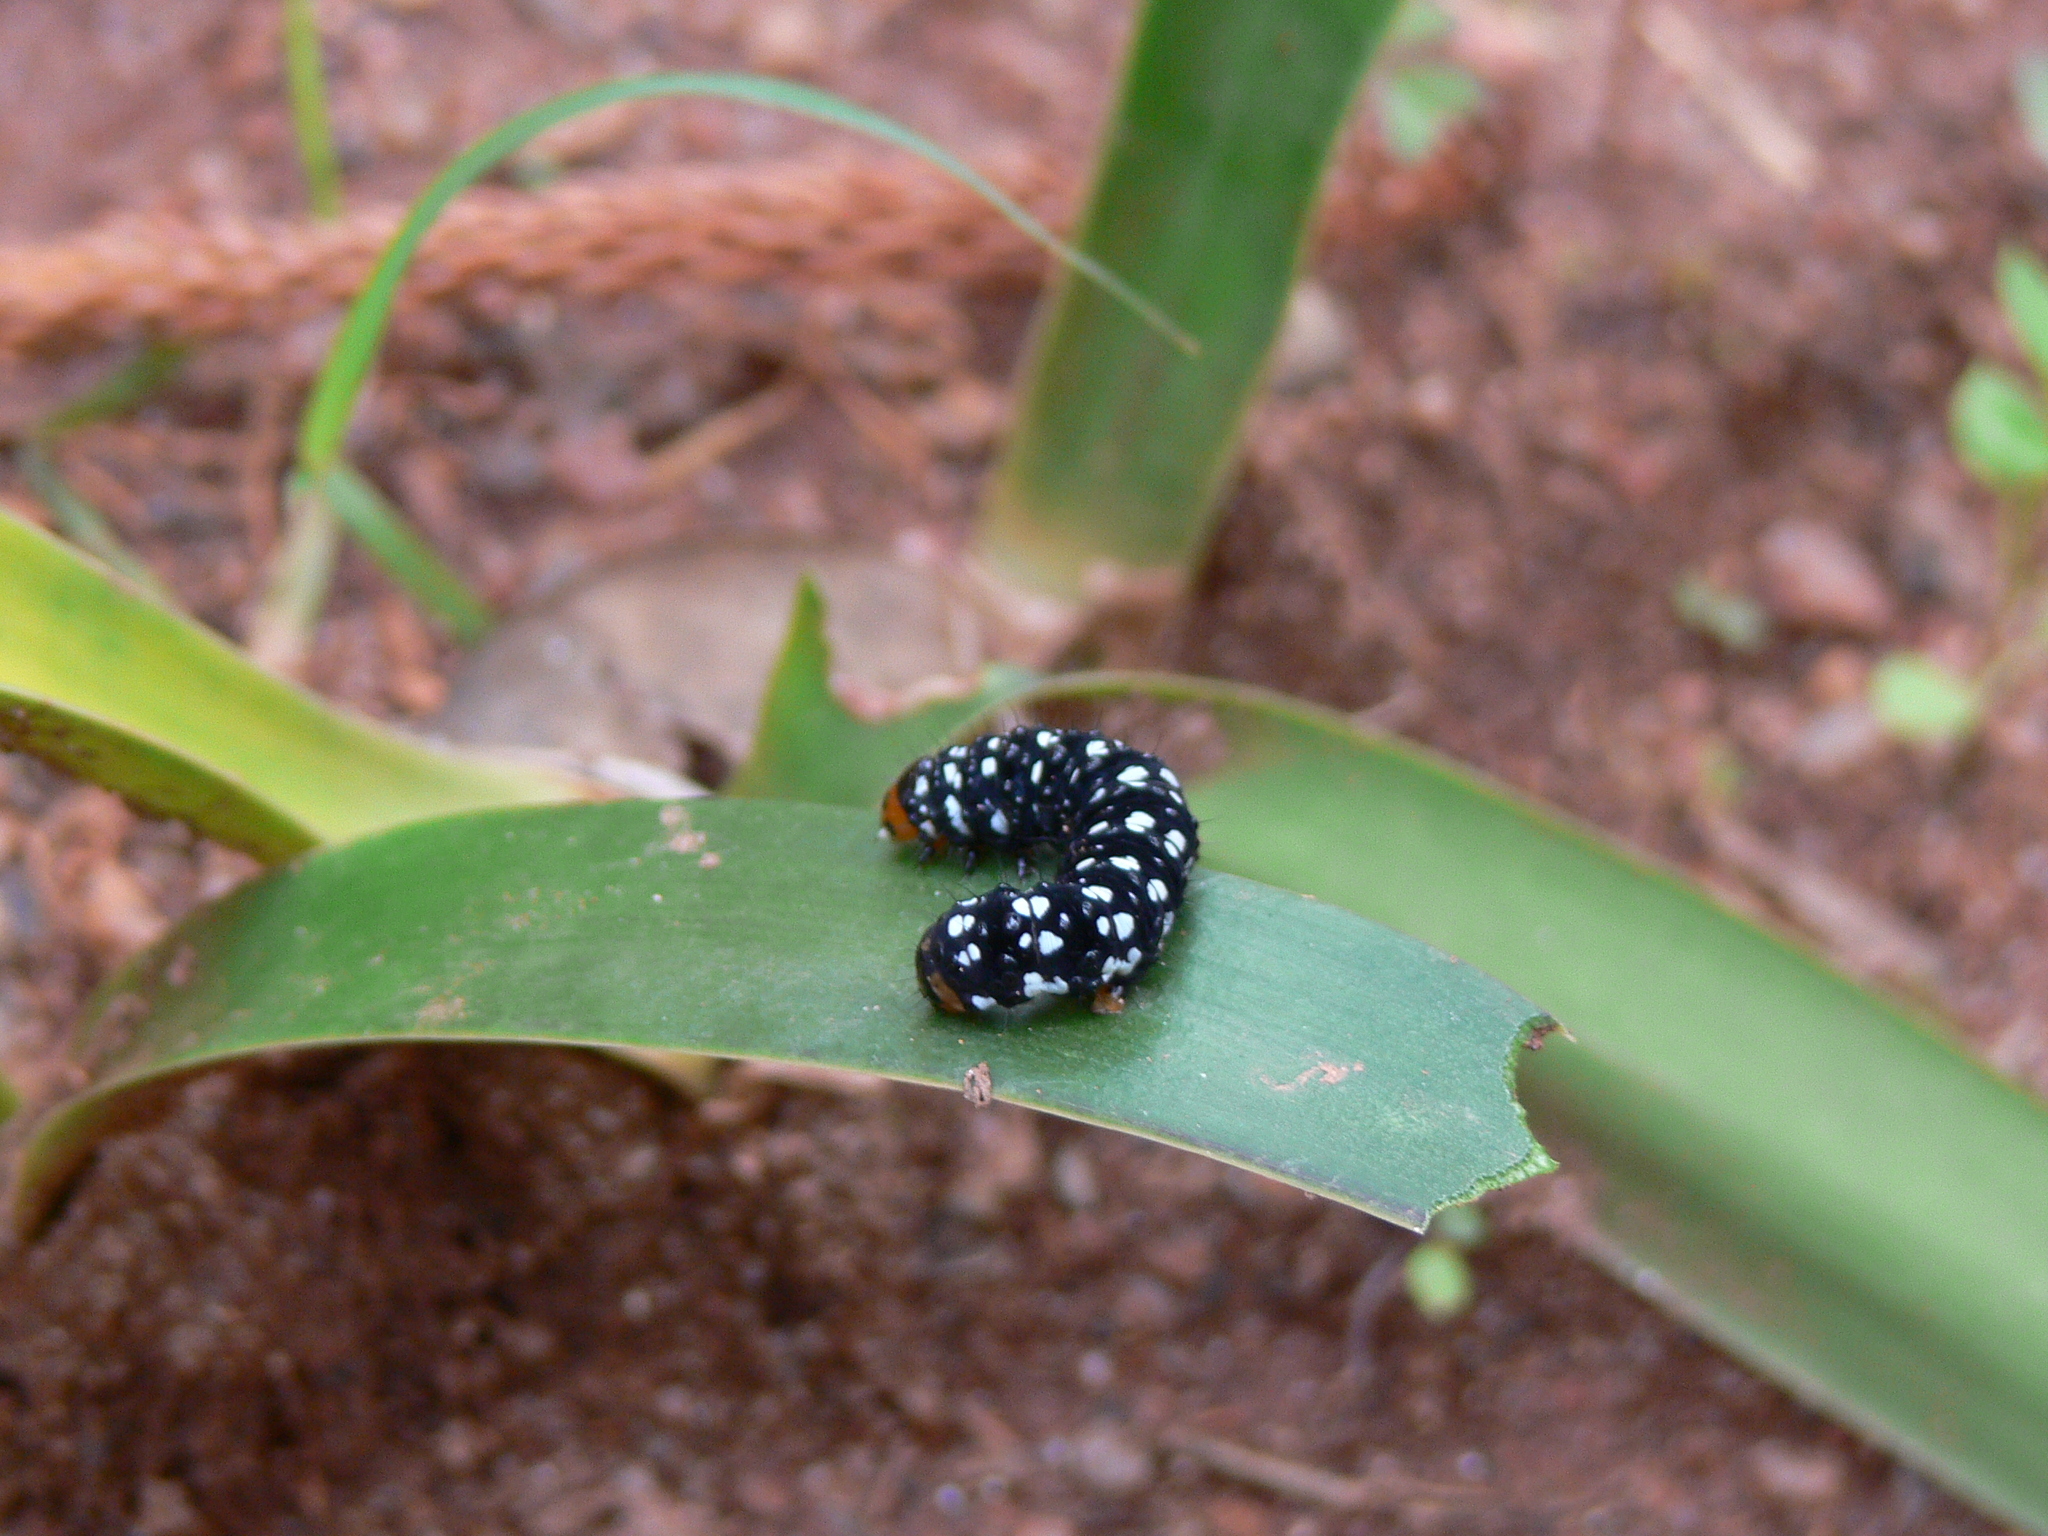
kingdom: Animalia
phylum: Arthropoda
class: Insecta
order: Lepidoptera
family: Noctuidae
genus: Brithys
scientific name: Brithys crini
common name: Kew arches
